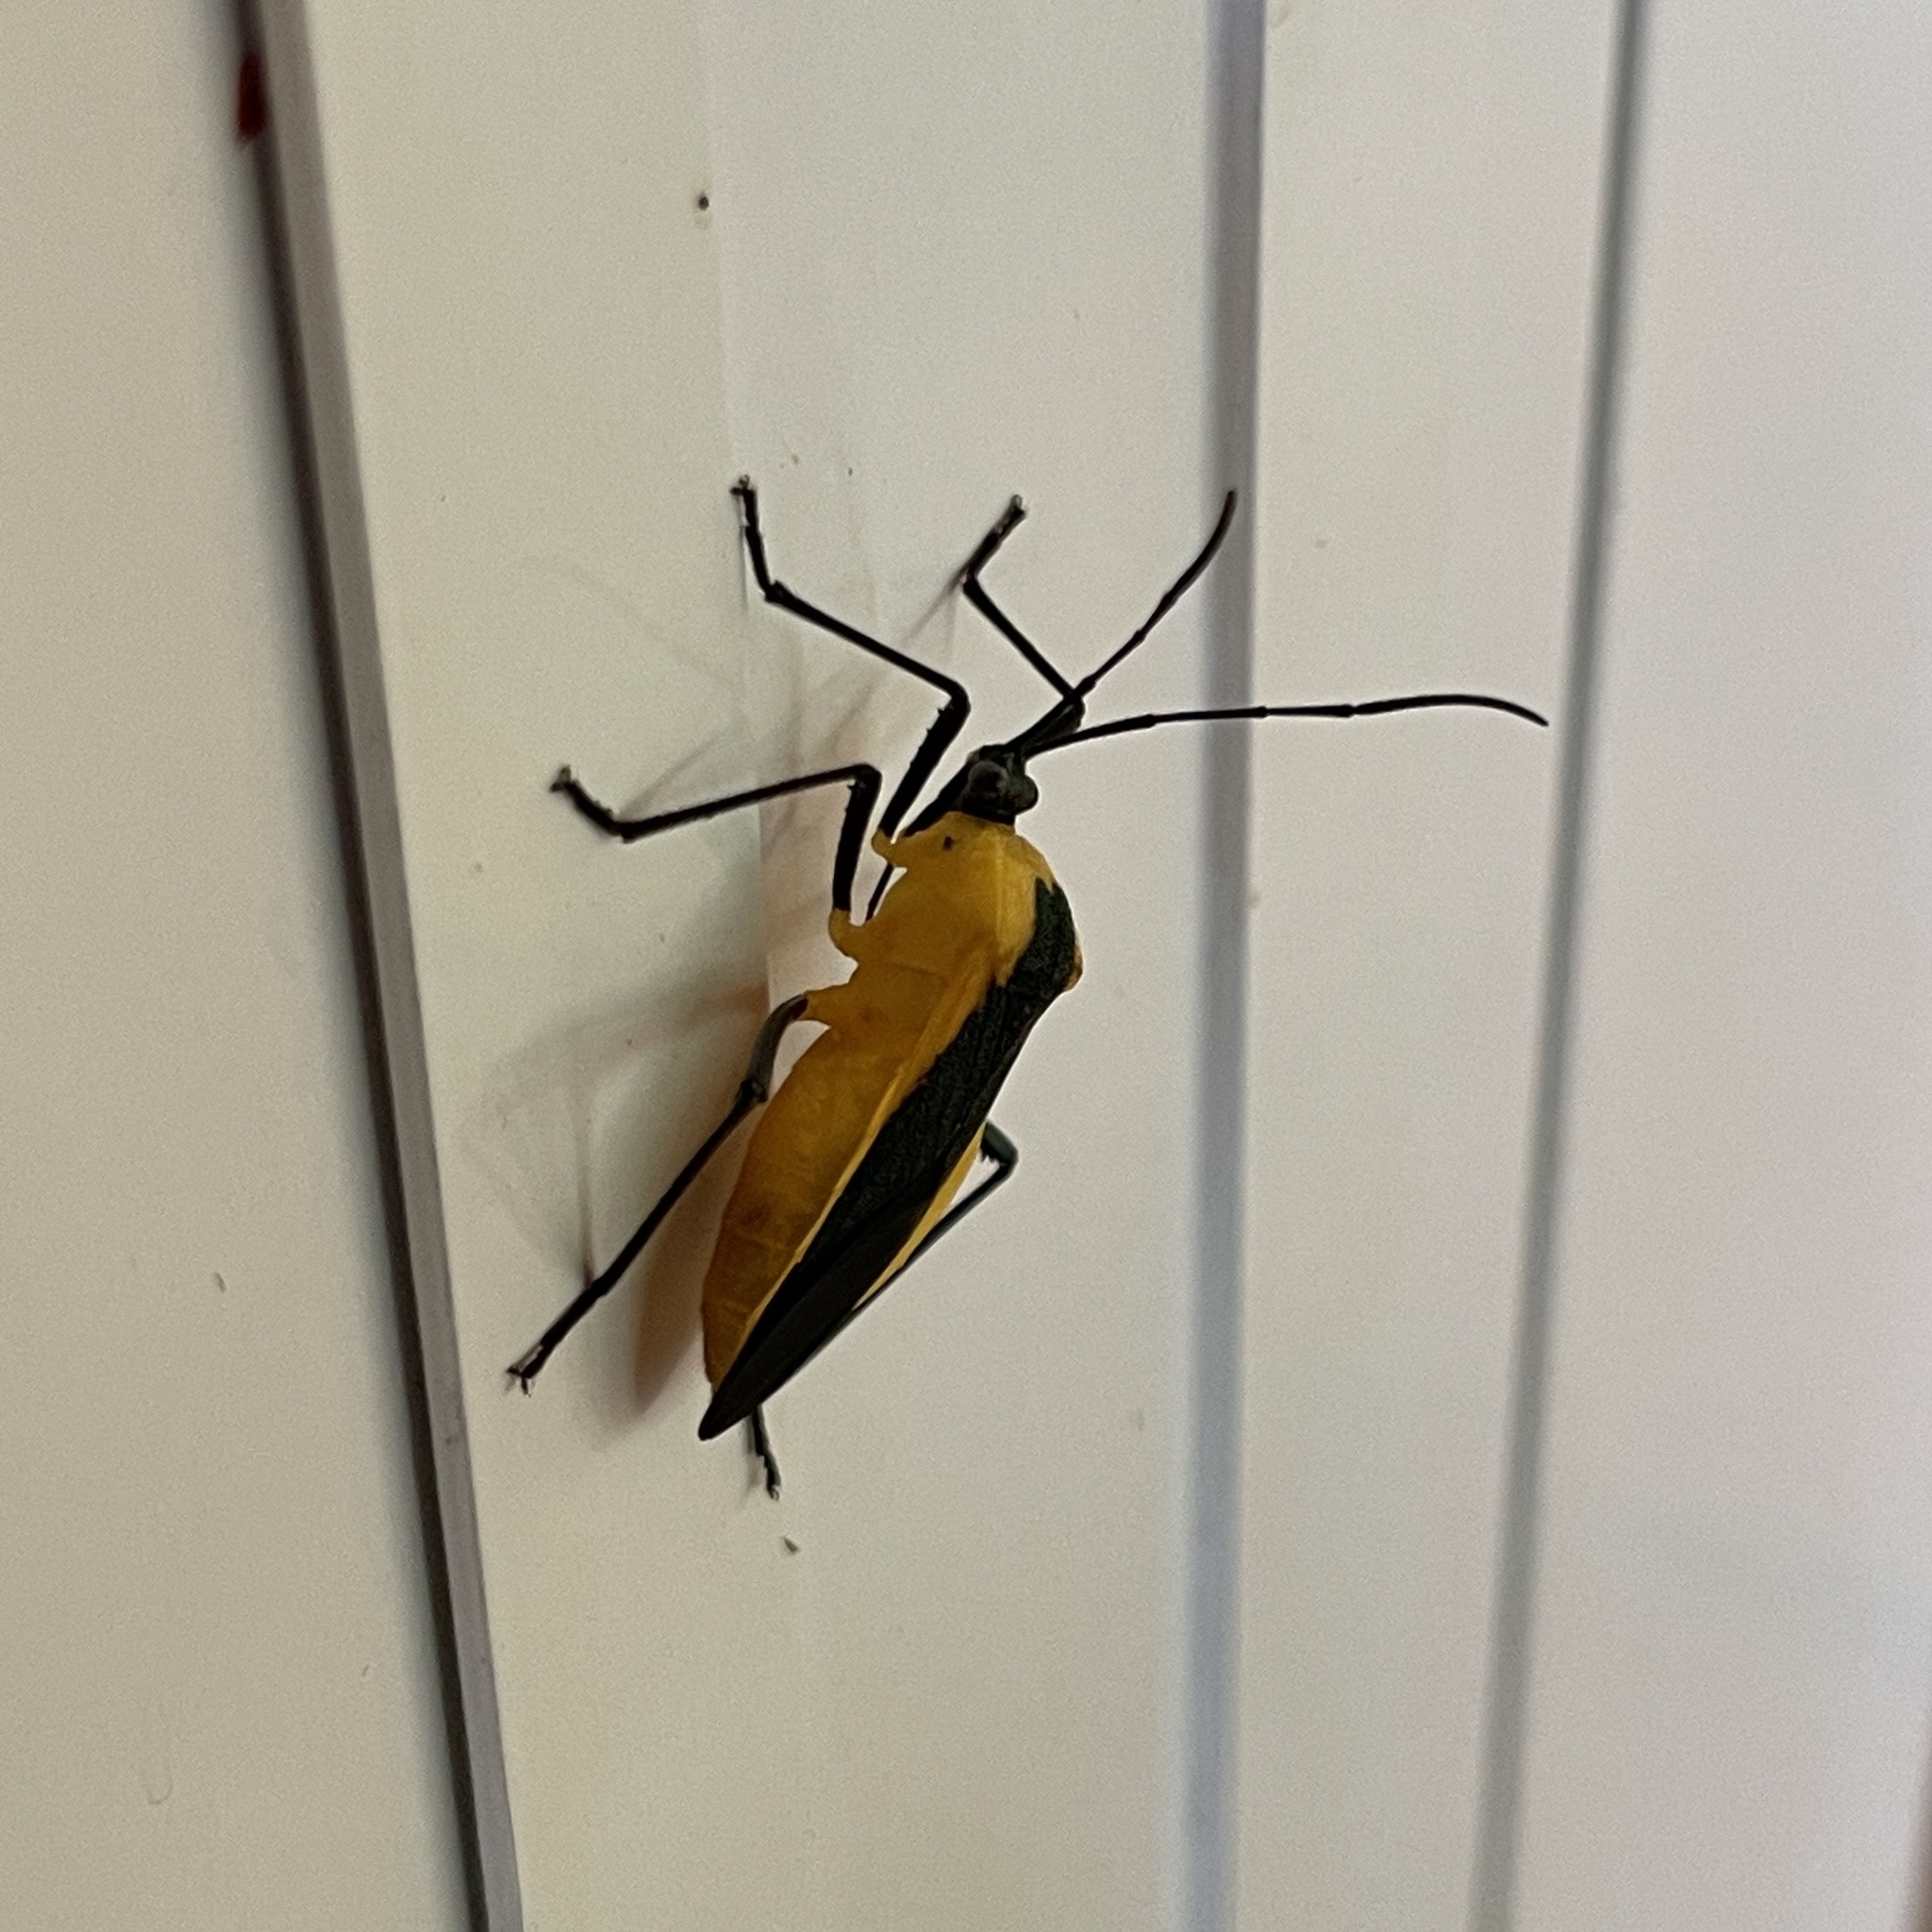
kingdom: Animalia
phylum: Arthropoda
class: Insecta
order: Hemiptera
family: Coreidae
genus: Laminiceps
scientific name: Laminiceps lutescens
